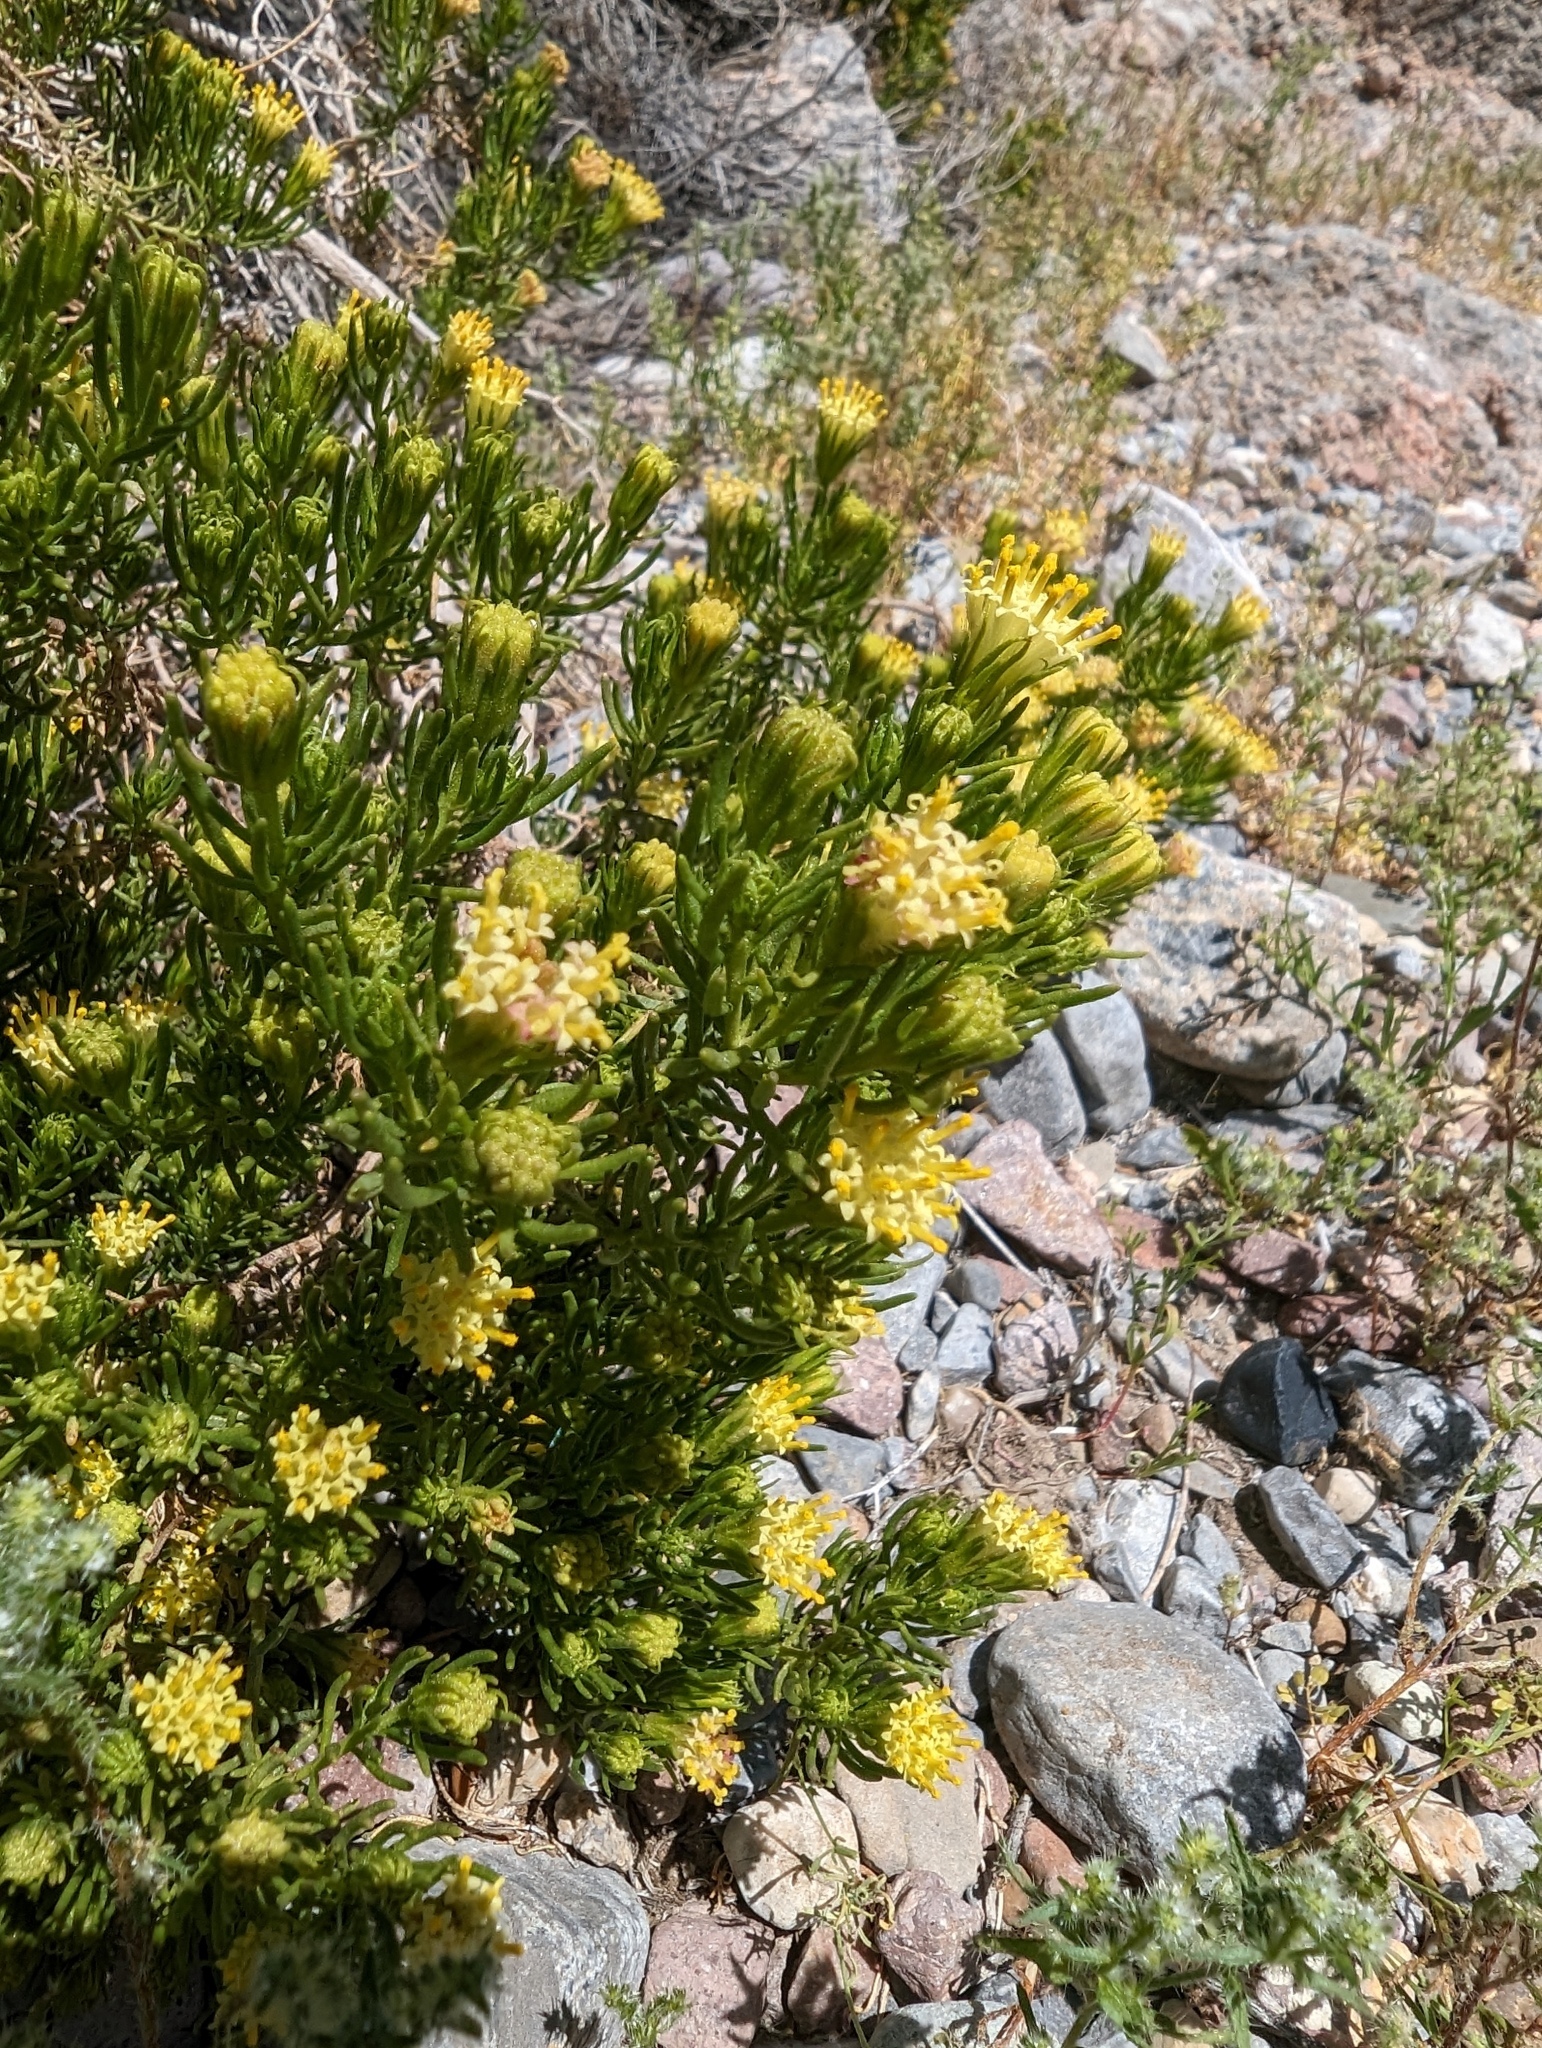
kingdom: Plantae
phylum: Tracheophyta
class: Magnoliopsida
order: Asterales
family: Asteraceae
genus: Peucephyllum
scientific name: Peucephyllum schottii
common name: Pygmy-cedar
